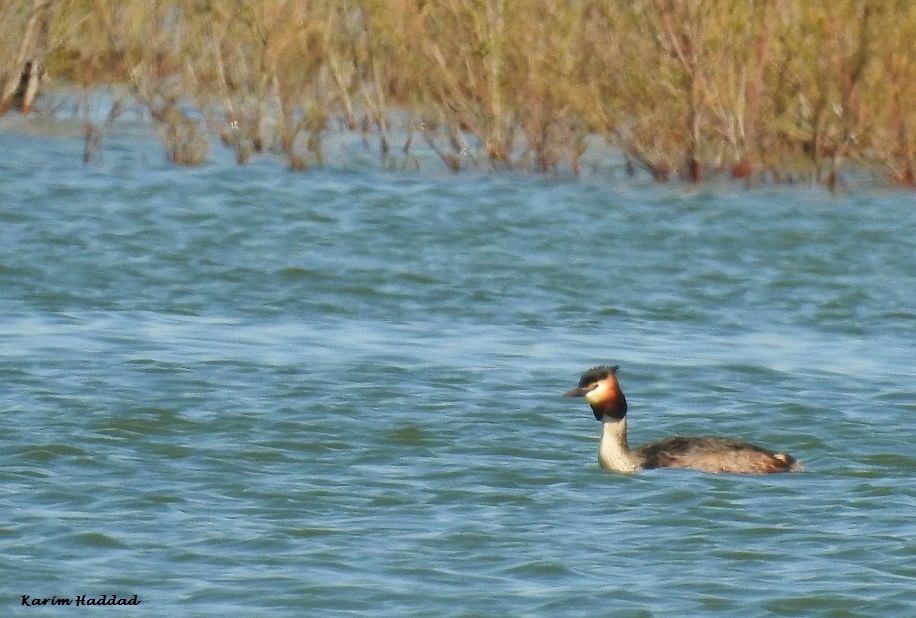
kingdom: Animalia
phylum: Chordata
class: Aves
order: Podicipediformes
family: Podicipedidae
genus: Podiceps
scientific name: Podiceps cristatus
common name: Great crested grebe
